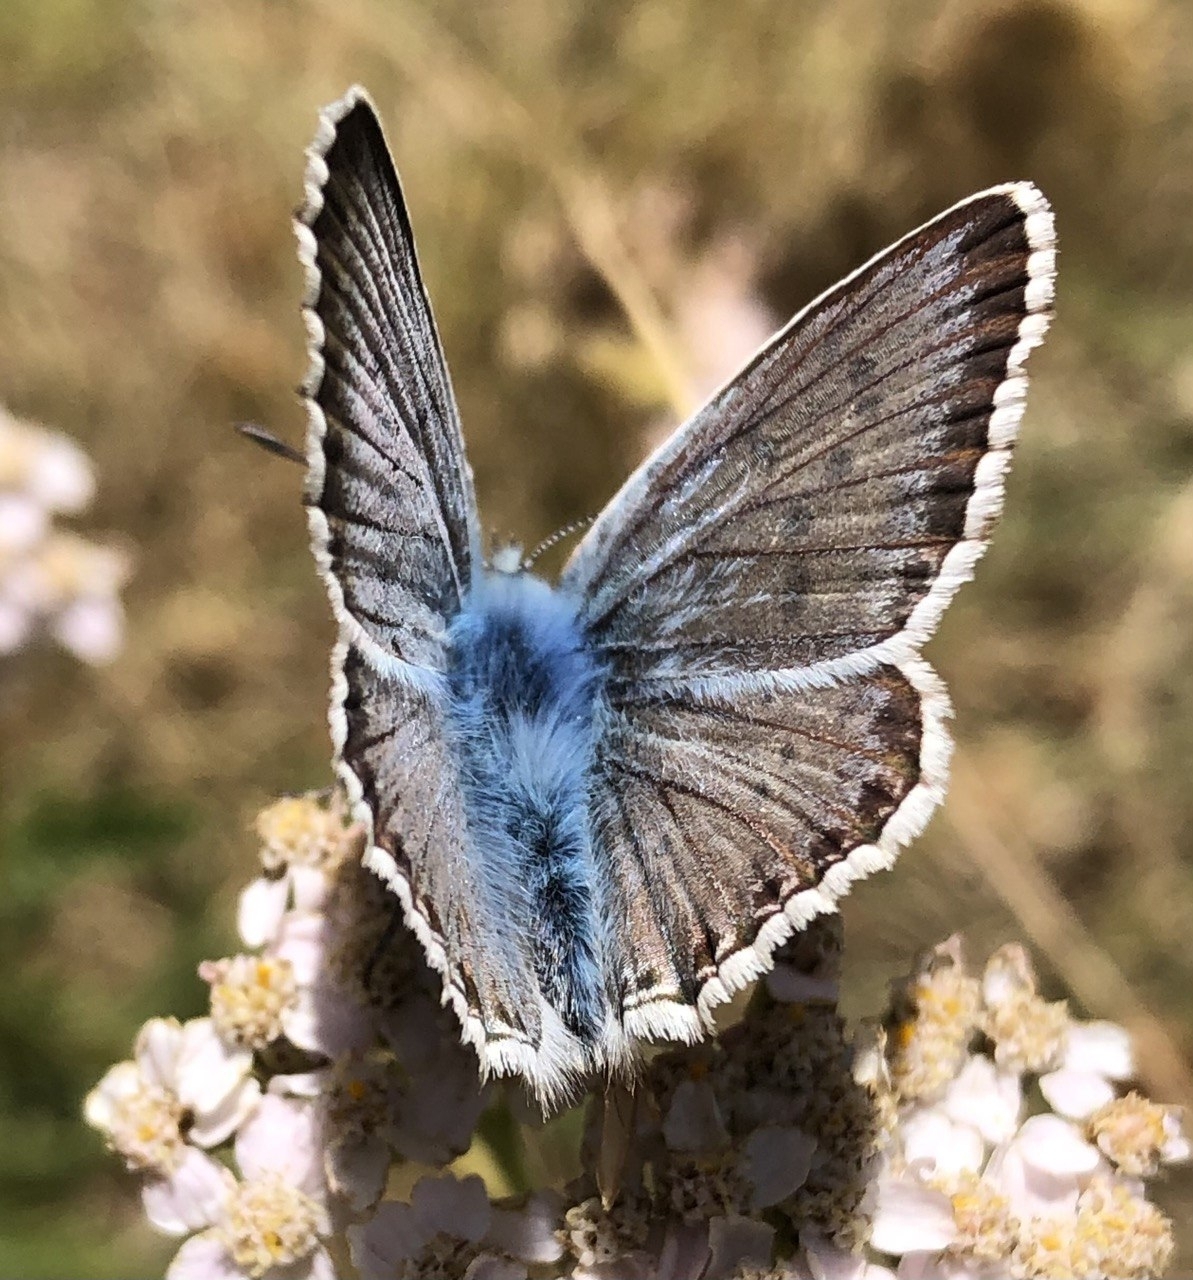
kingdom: Animalia
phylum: Arthropoda
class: Insecta
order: Lepidoptera
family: Lycaenidae
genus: Lysandra
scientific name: Lysandra coridon
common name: Chalkhill blue
